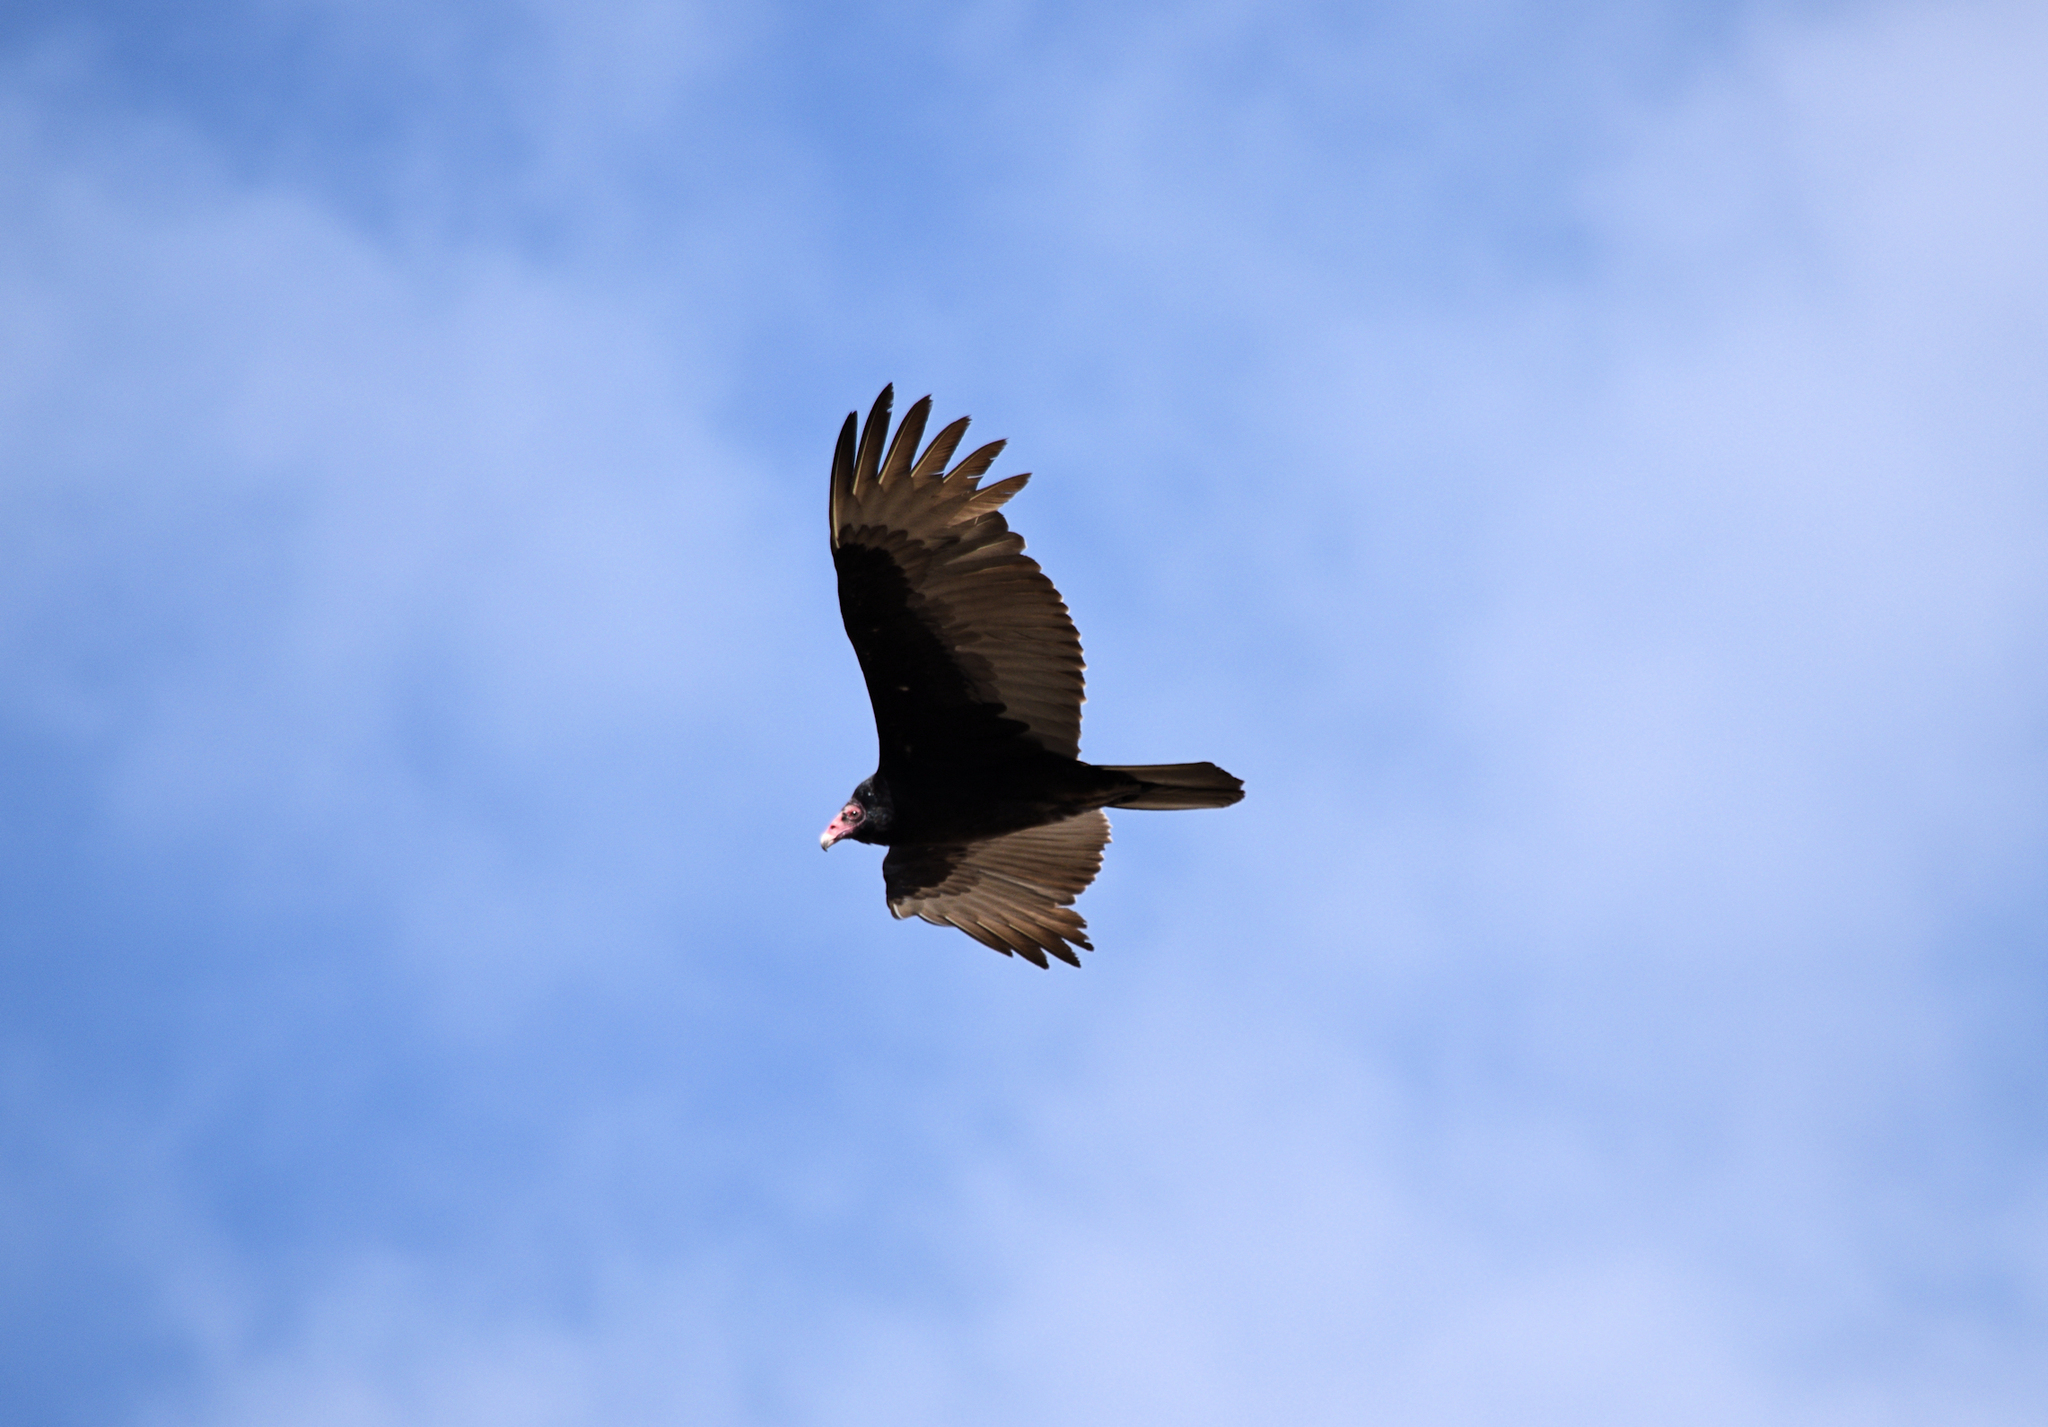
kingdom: Animalia
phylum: Chordata
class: Aves
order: Accipitriformes
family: Cathartidae
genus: Cathartes
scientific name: Cathartes aura
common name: Turkey vulture
